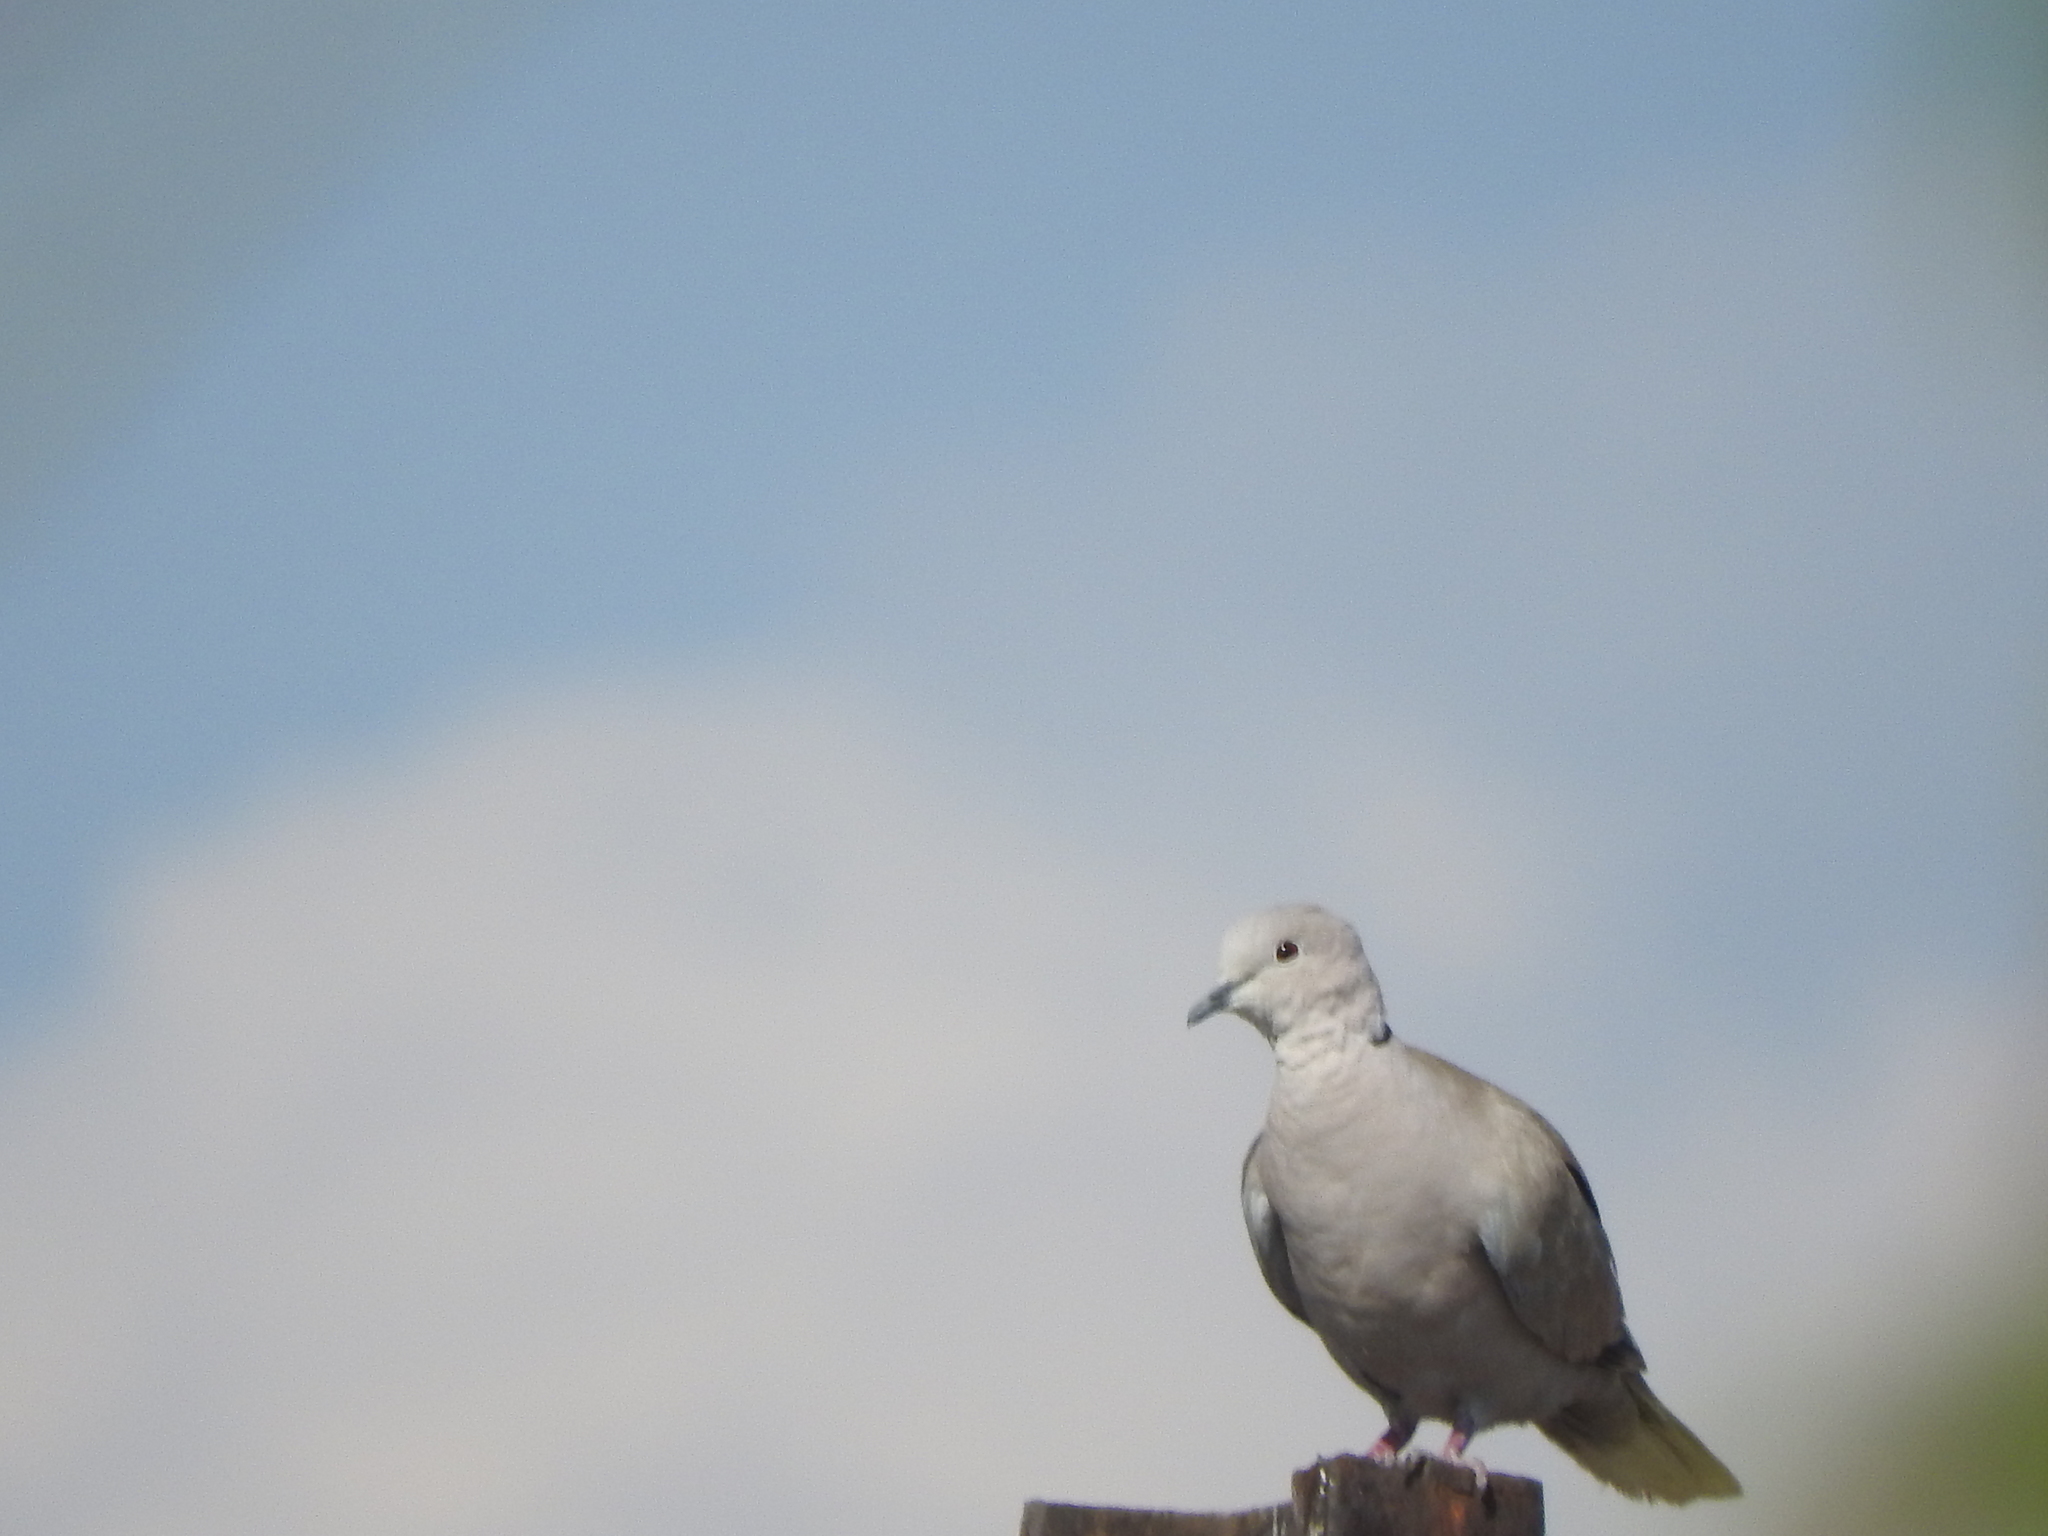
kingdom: Animalia
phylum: Chordata
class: Aves
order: Columbiformes
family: Columbidae
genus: Streptopelia
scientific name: Streptopelia decaocto
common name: Eurasian collared dove
